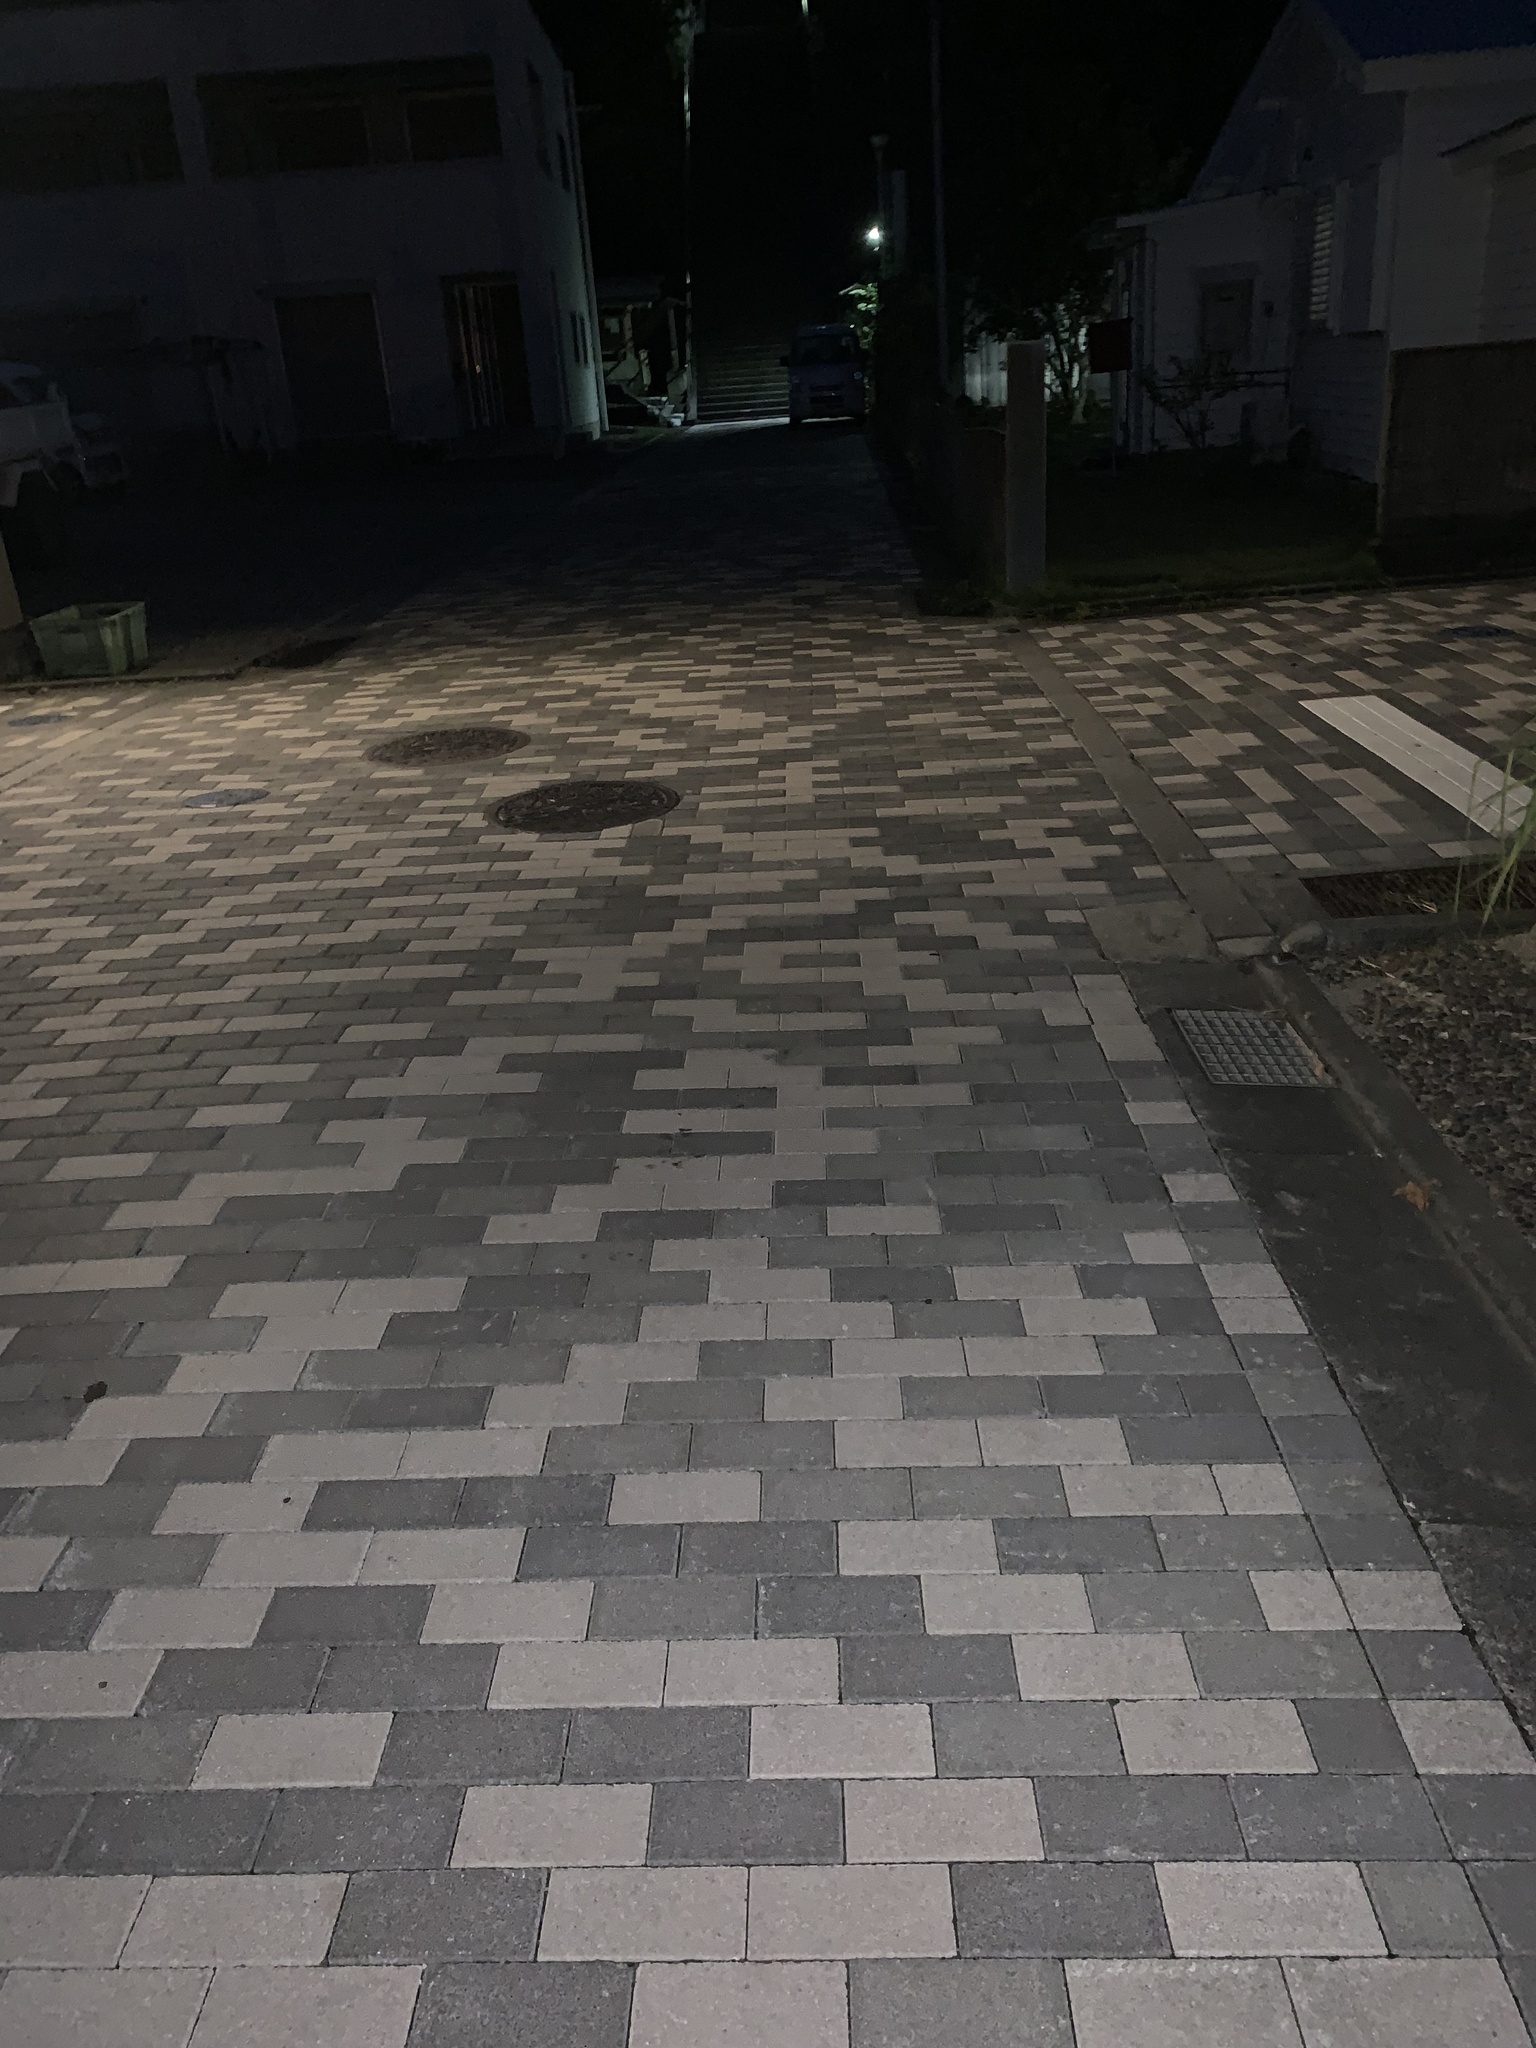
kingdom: Animalia
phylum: Arthropoda
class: Insecta
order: Orthoptera
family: Gryllidae
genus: Gryllodes
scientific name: Gryllodes sigillatus
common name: Tropical house cricket
